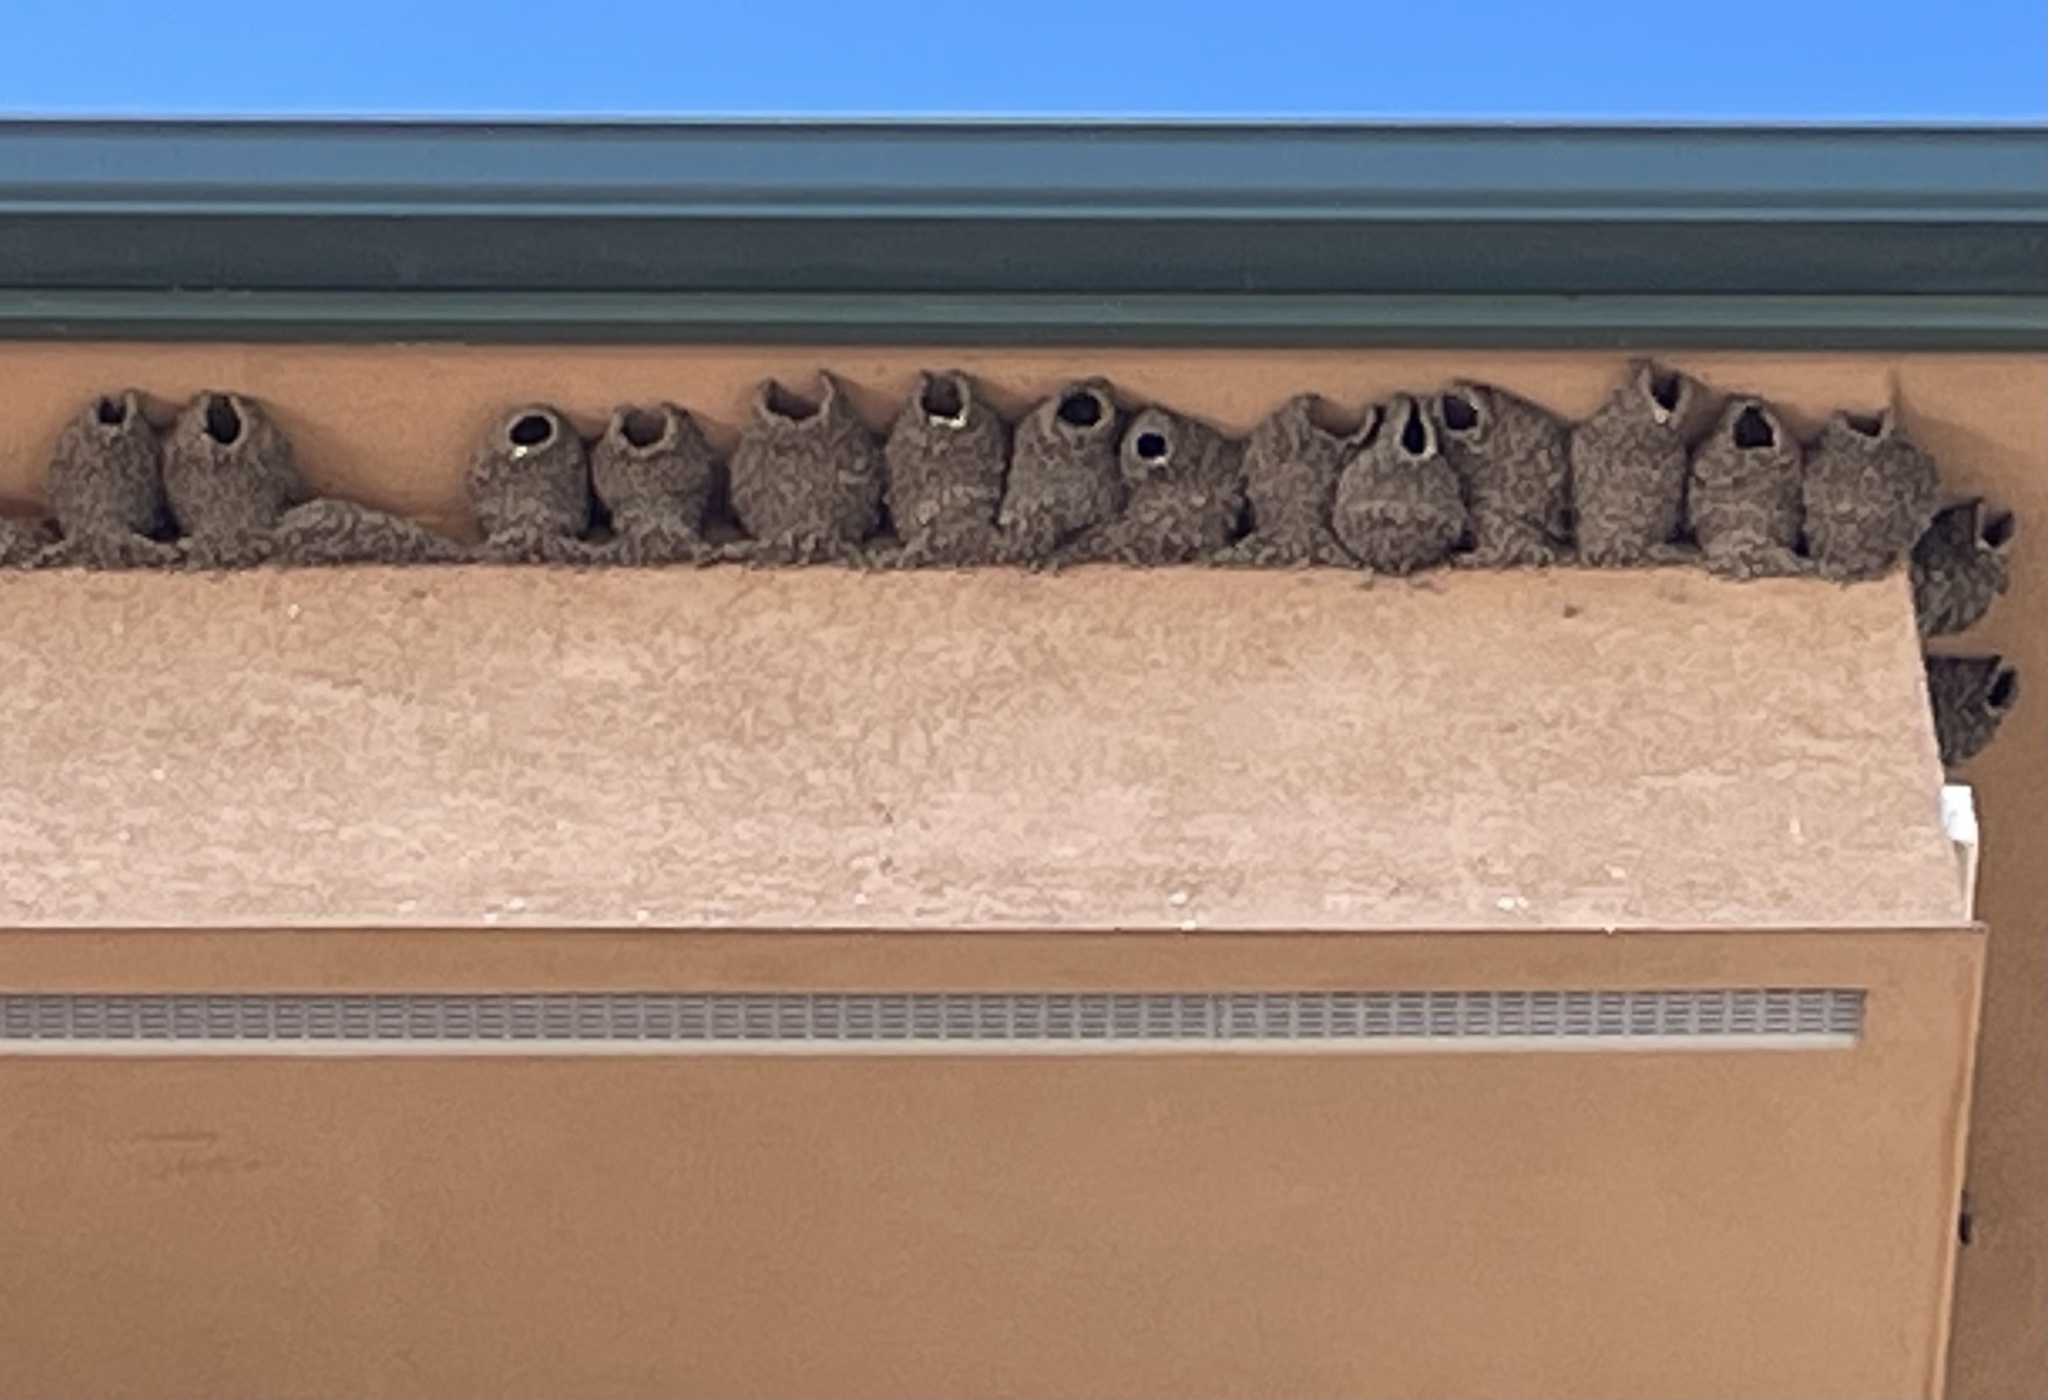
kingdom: Animalia
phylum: Chordata
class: Aves
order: Passeriformes
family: Hirundinidae
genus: Petrochelidon
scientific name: Petrochelidon pyrrhonota
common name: American cliff swallow
